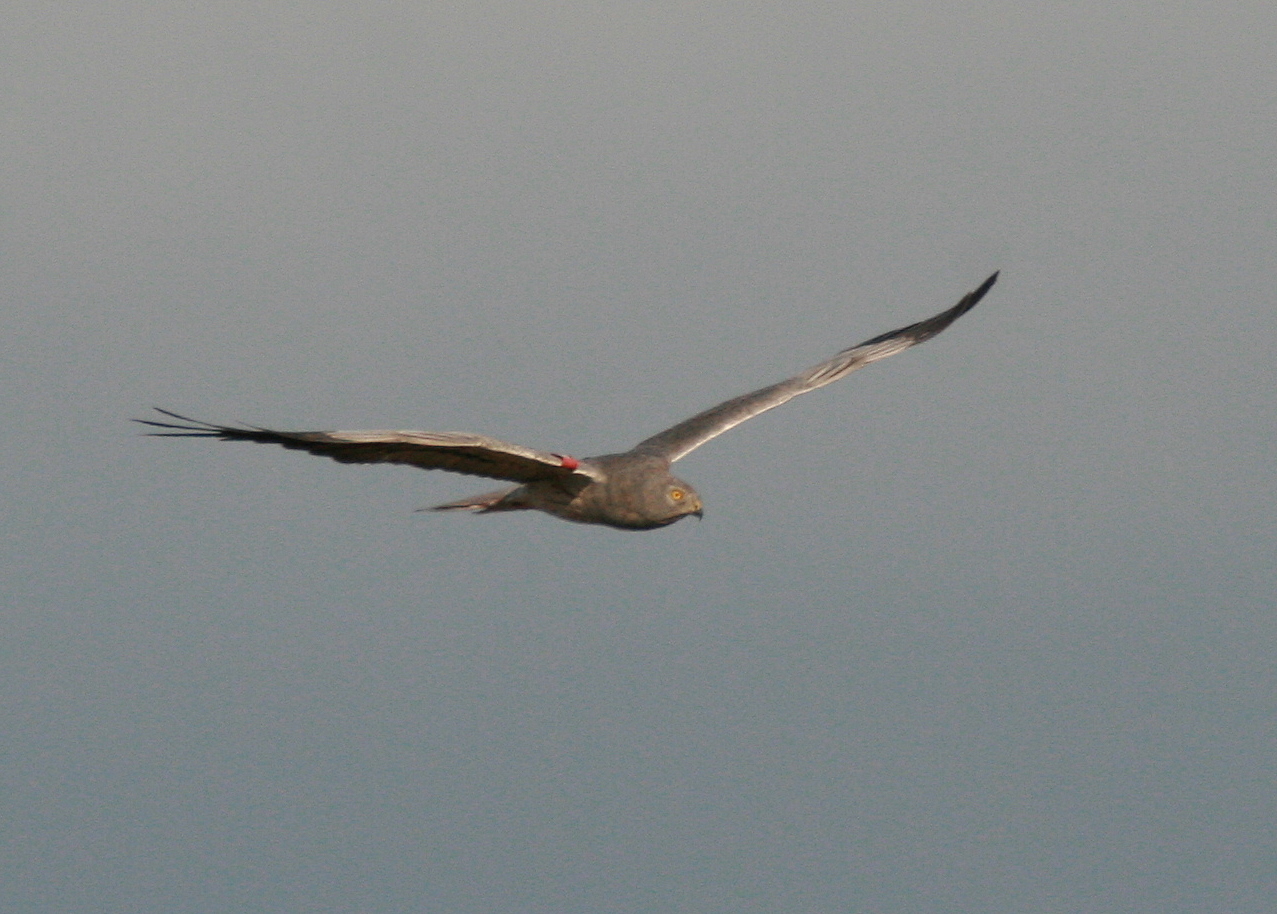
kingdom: Animalia
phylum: Chordata
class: Aves
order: Accipitriformes
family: Accipitridae
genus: Circus
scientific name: Circus pygargus
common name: Montagu's harrier
